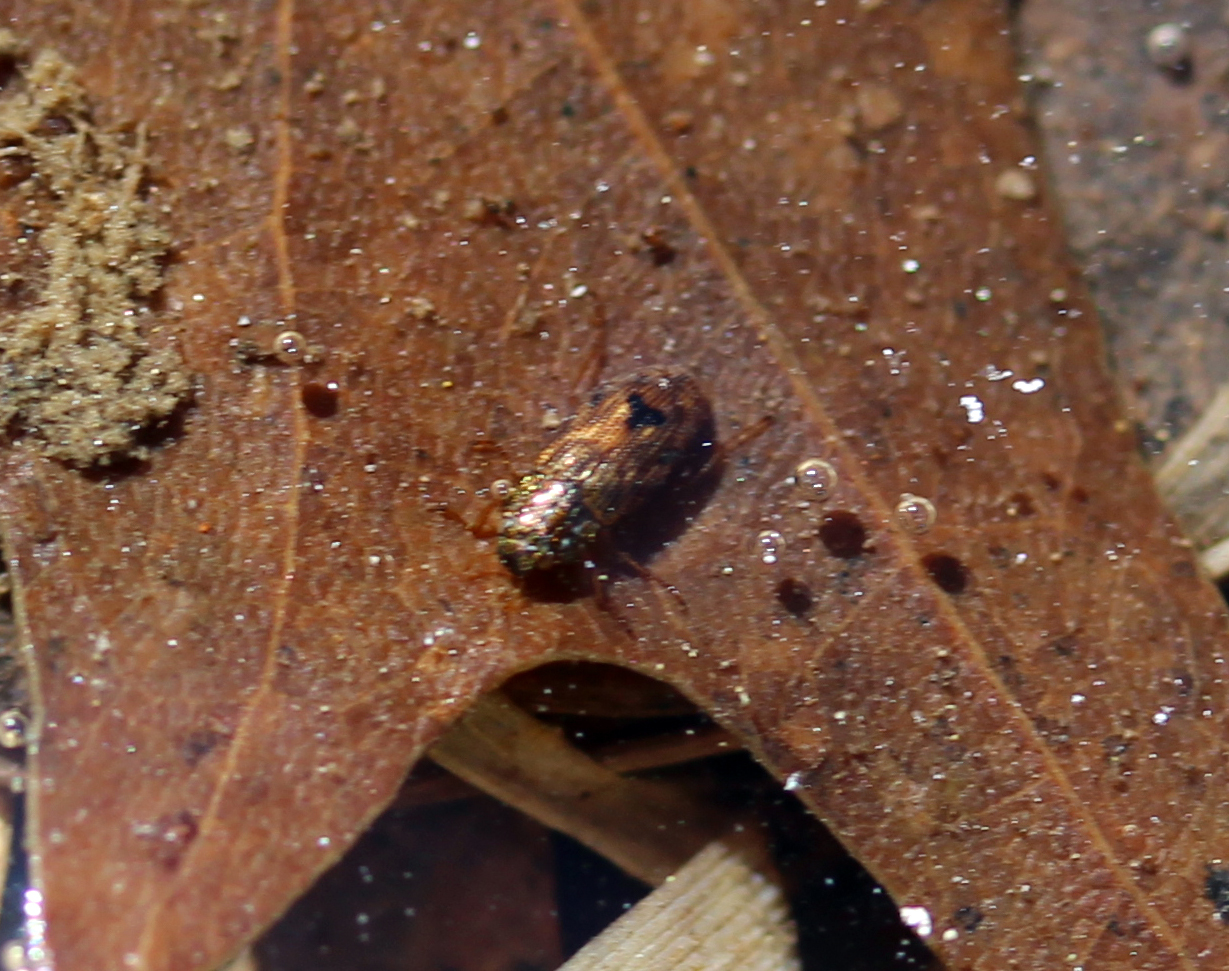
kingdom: Animalia
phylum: Arthropoda
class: Insecta
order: Coleoptera
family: Helophoridae
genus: Helophorus
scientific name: Helophorus
